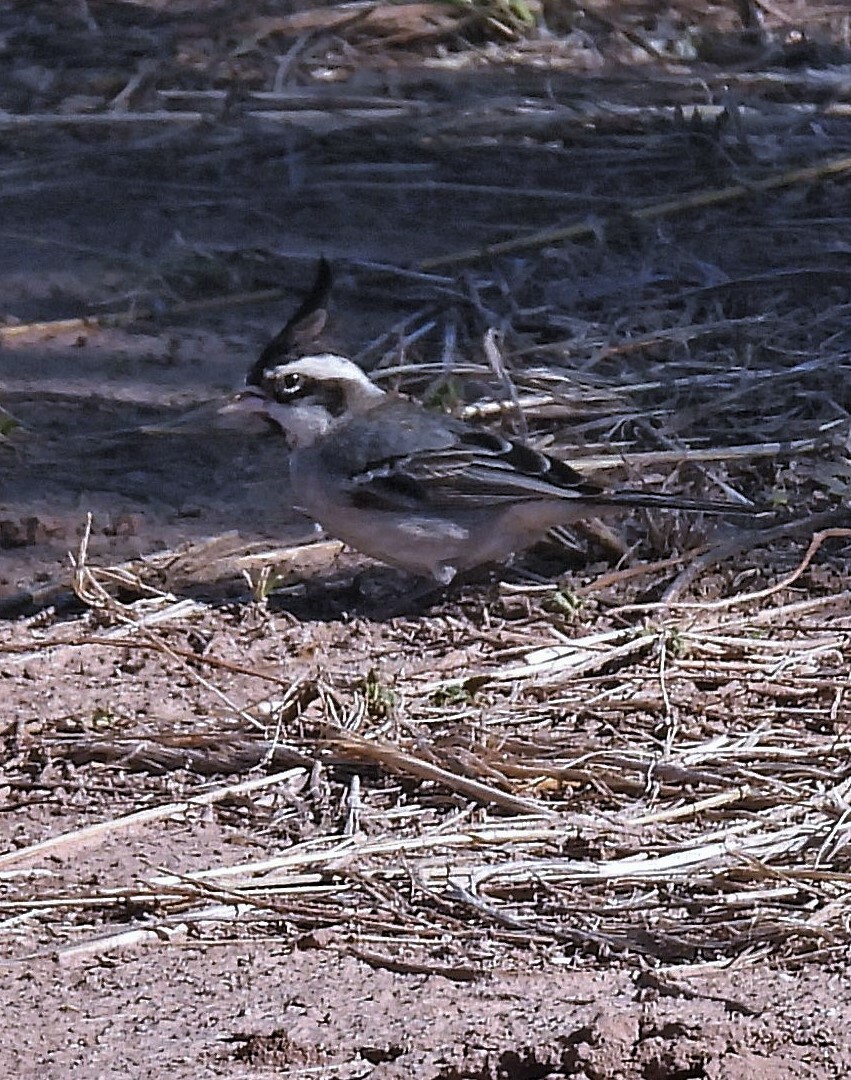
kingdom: Animalia
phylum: Chordata
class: Aves
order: Passeriformes
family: Thraupidae
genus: Lophospingus
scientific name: Lophospingus pusillus
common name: Black-crested finch
